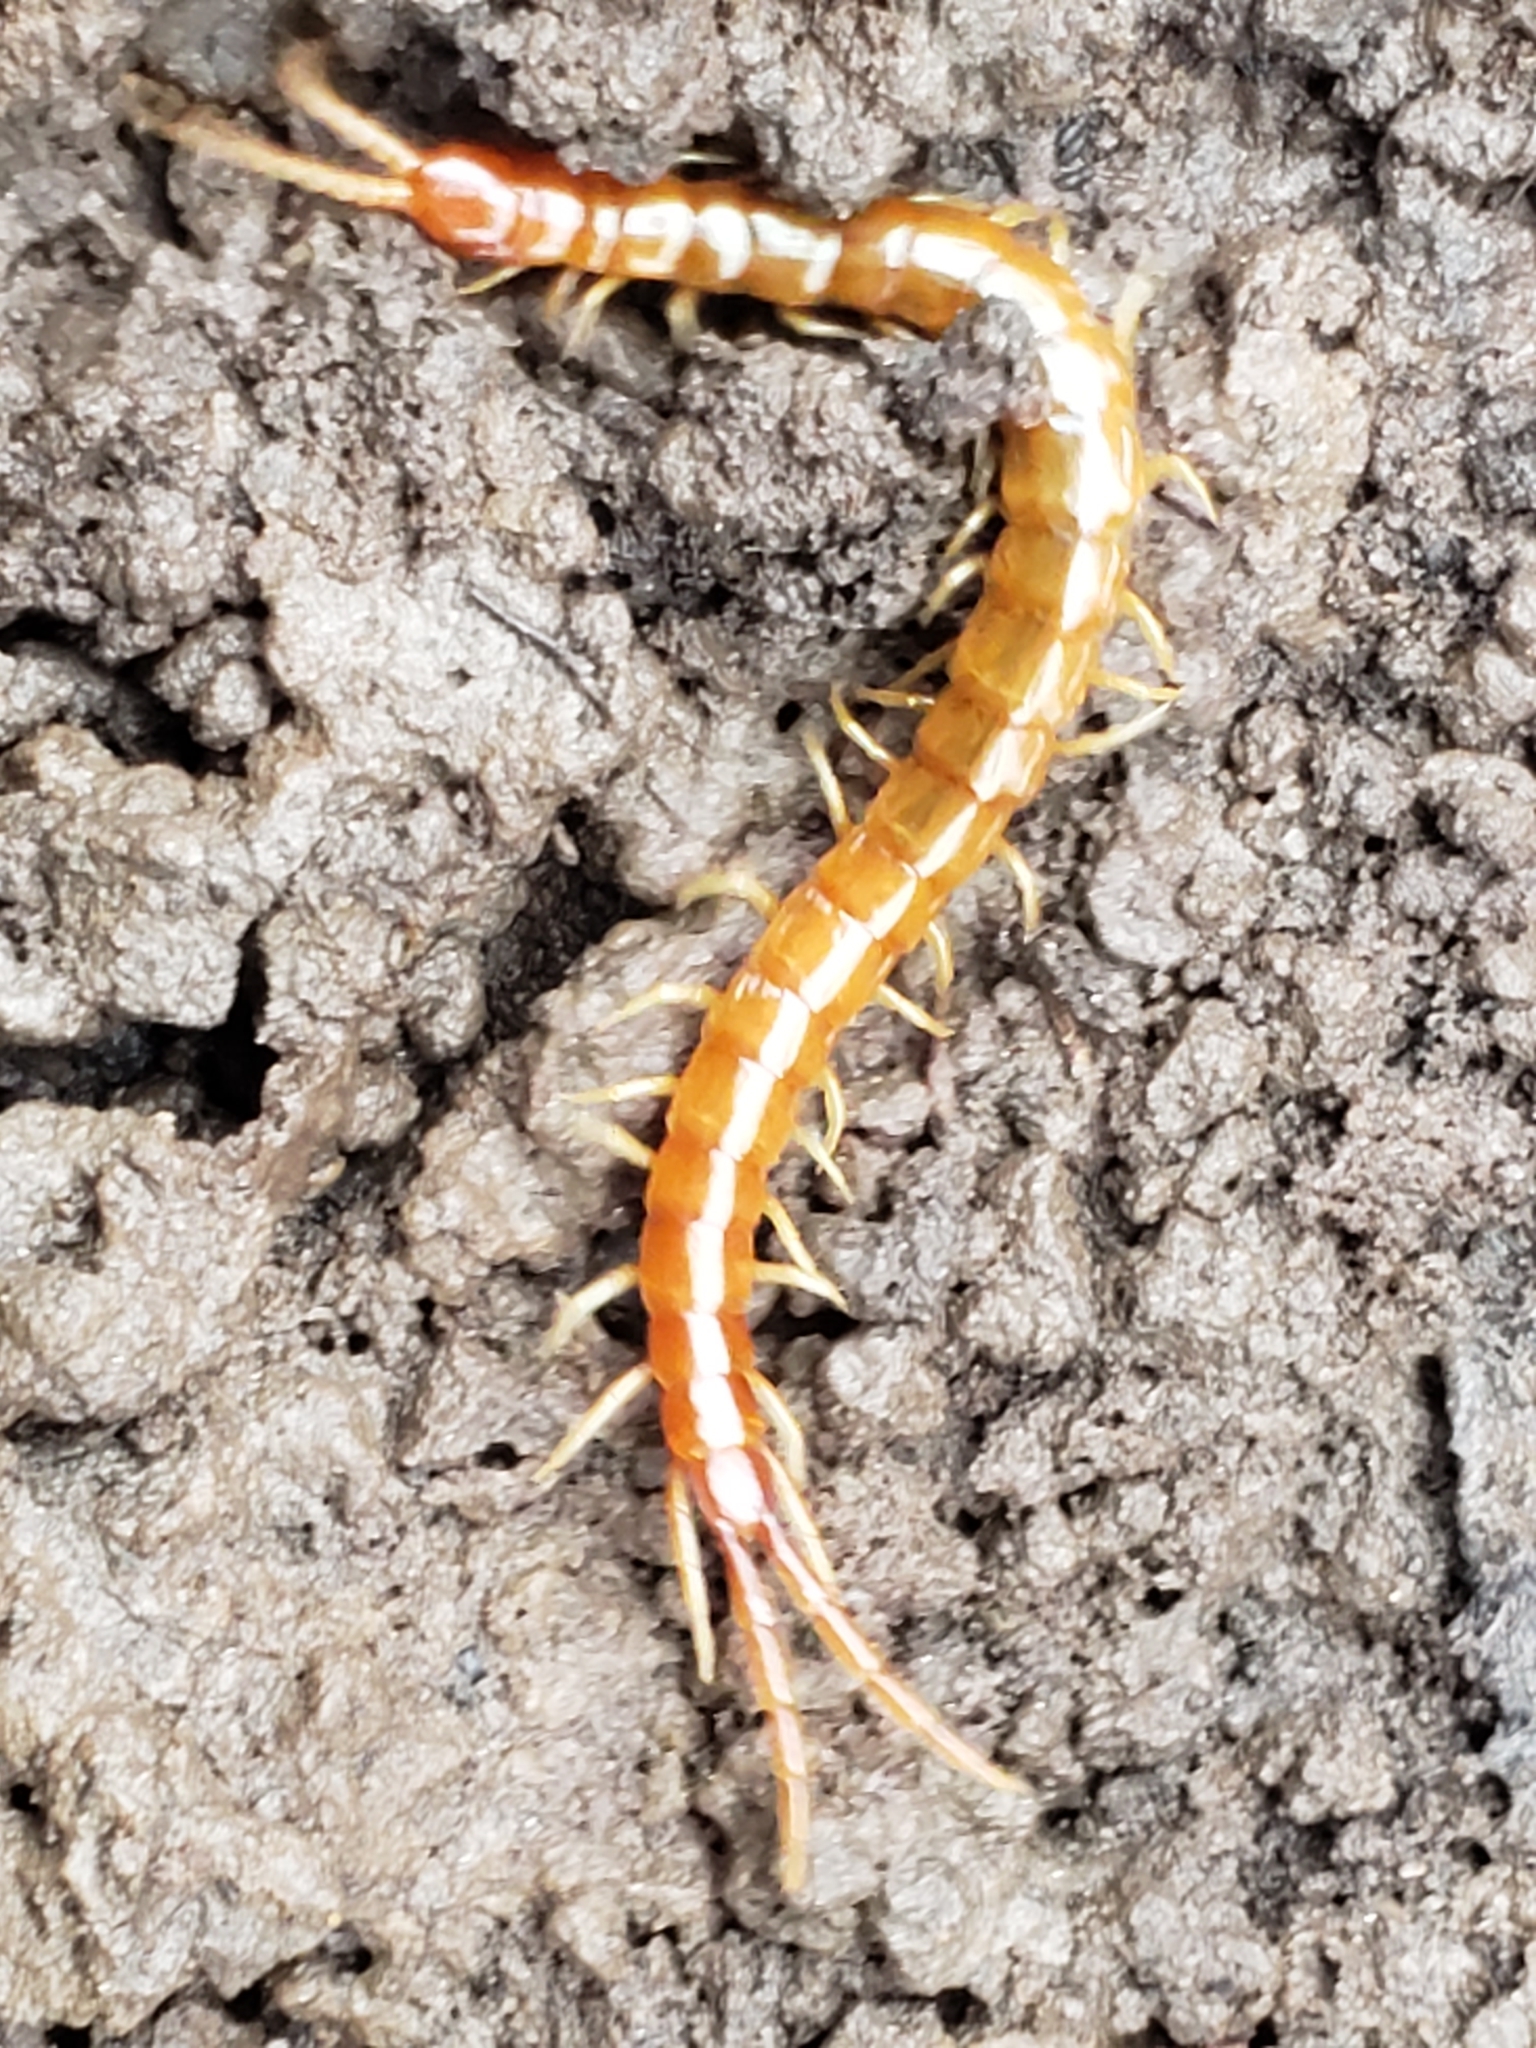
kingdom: Animalia
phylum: Arthropoda
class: Chilopoda
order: Scolopendromorpha
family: Scolopocryptopidae
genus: Scolopocryptops
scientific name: Scolopocryptops peregrinator
